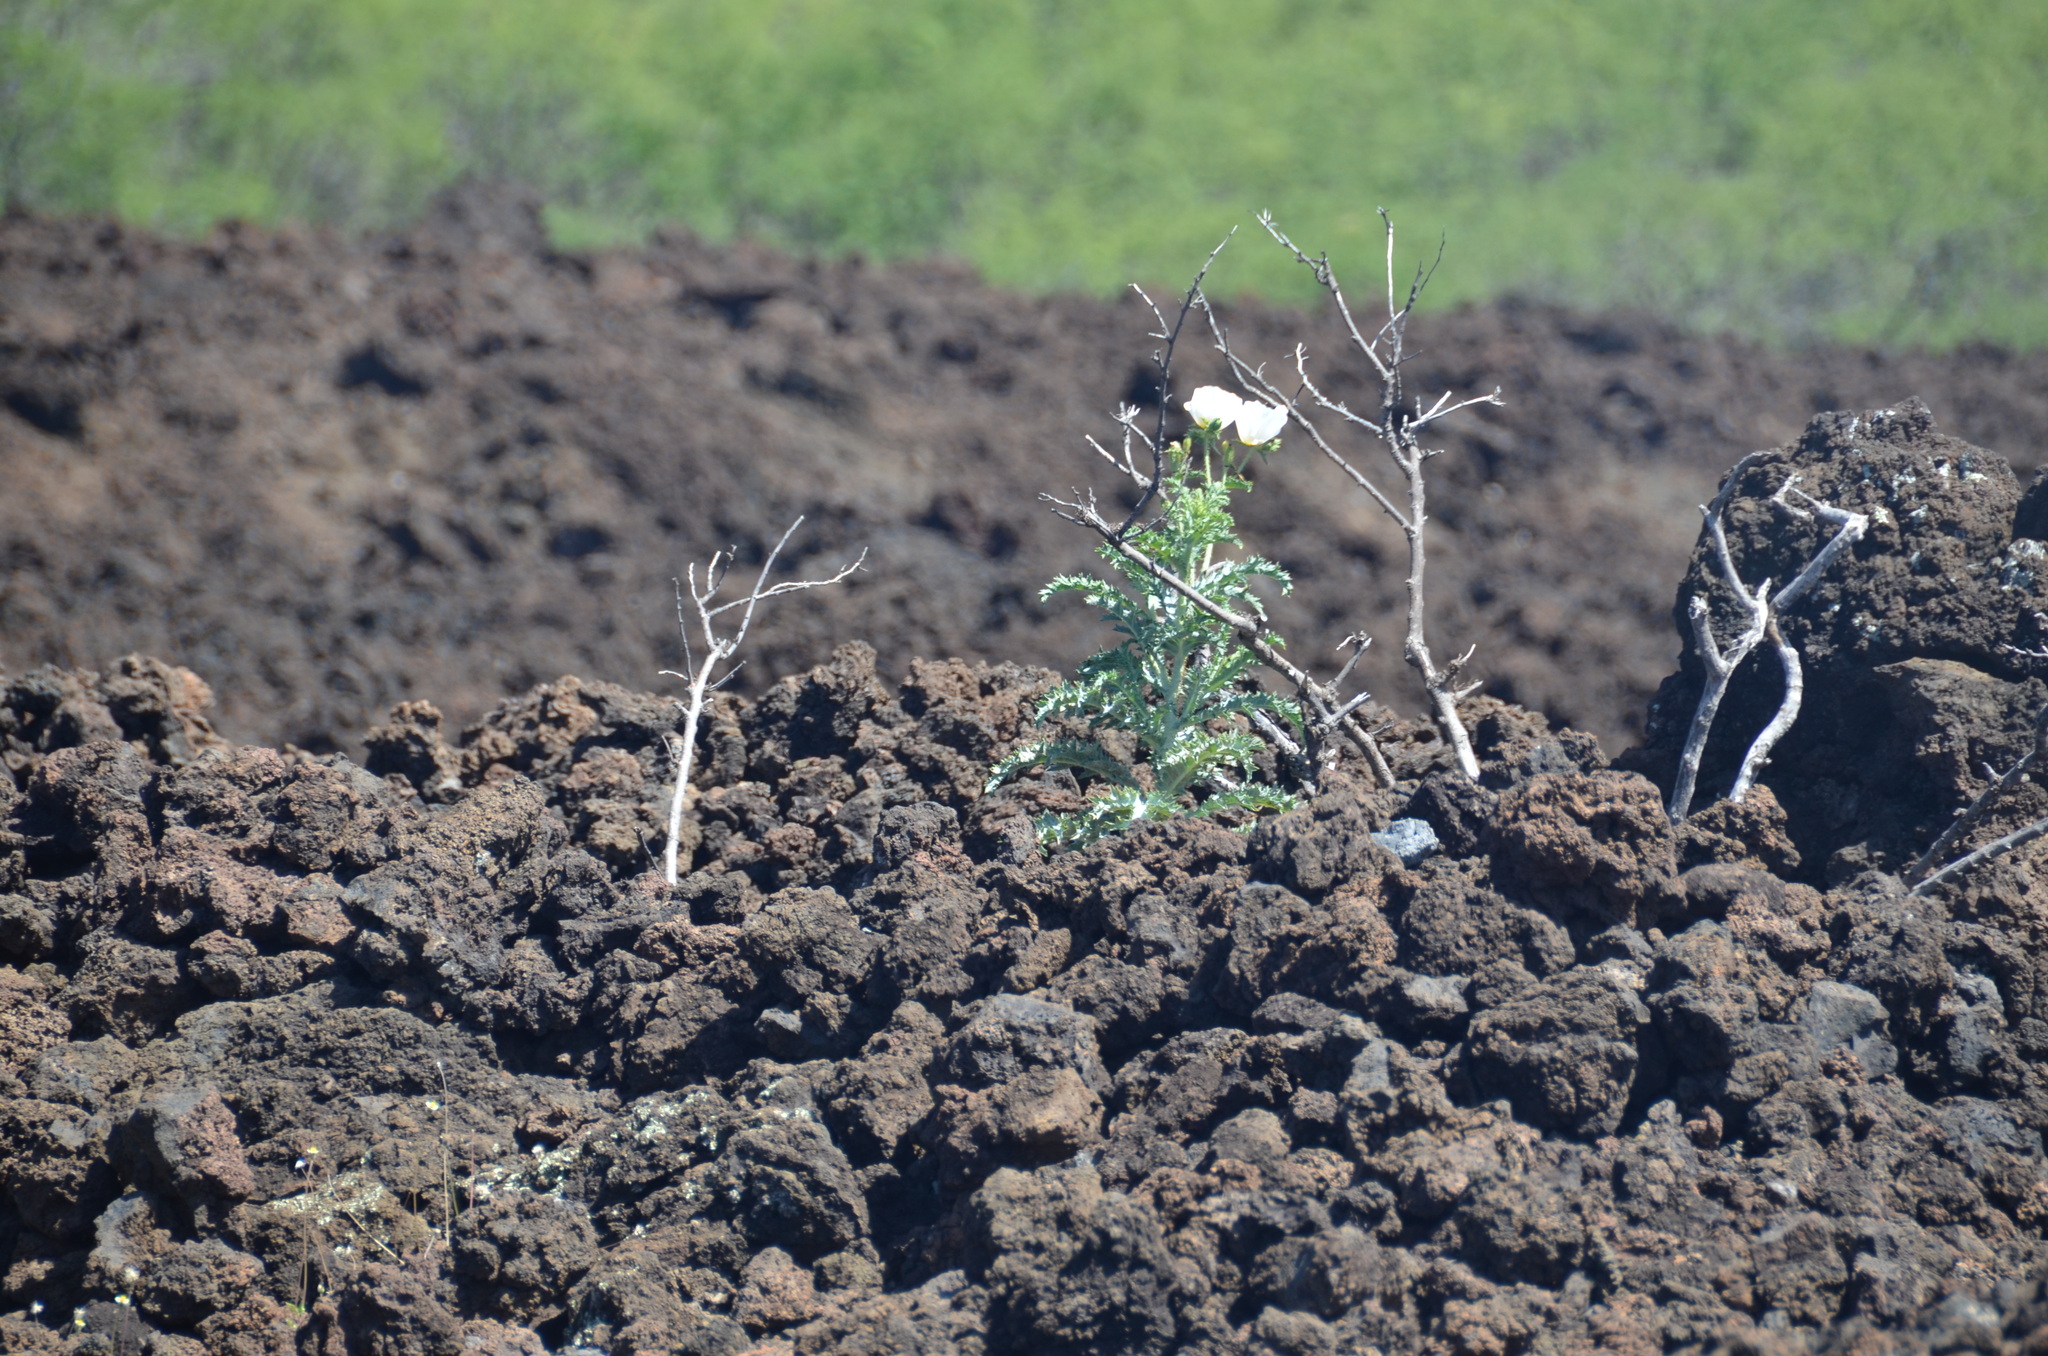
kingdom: Plantae
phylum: Tracheophyta
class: Magnoliopsida
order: Ranunculales
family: Papaveraceae
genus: Argemone
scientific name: Argemone glauca
